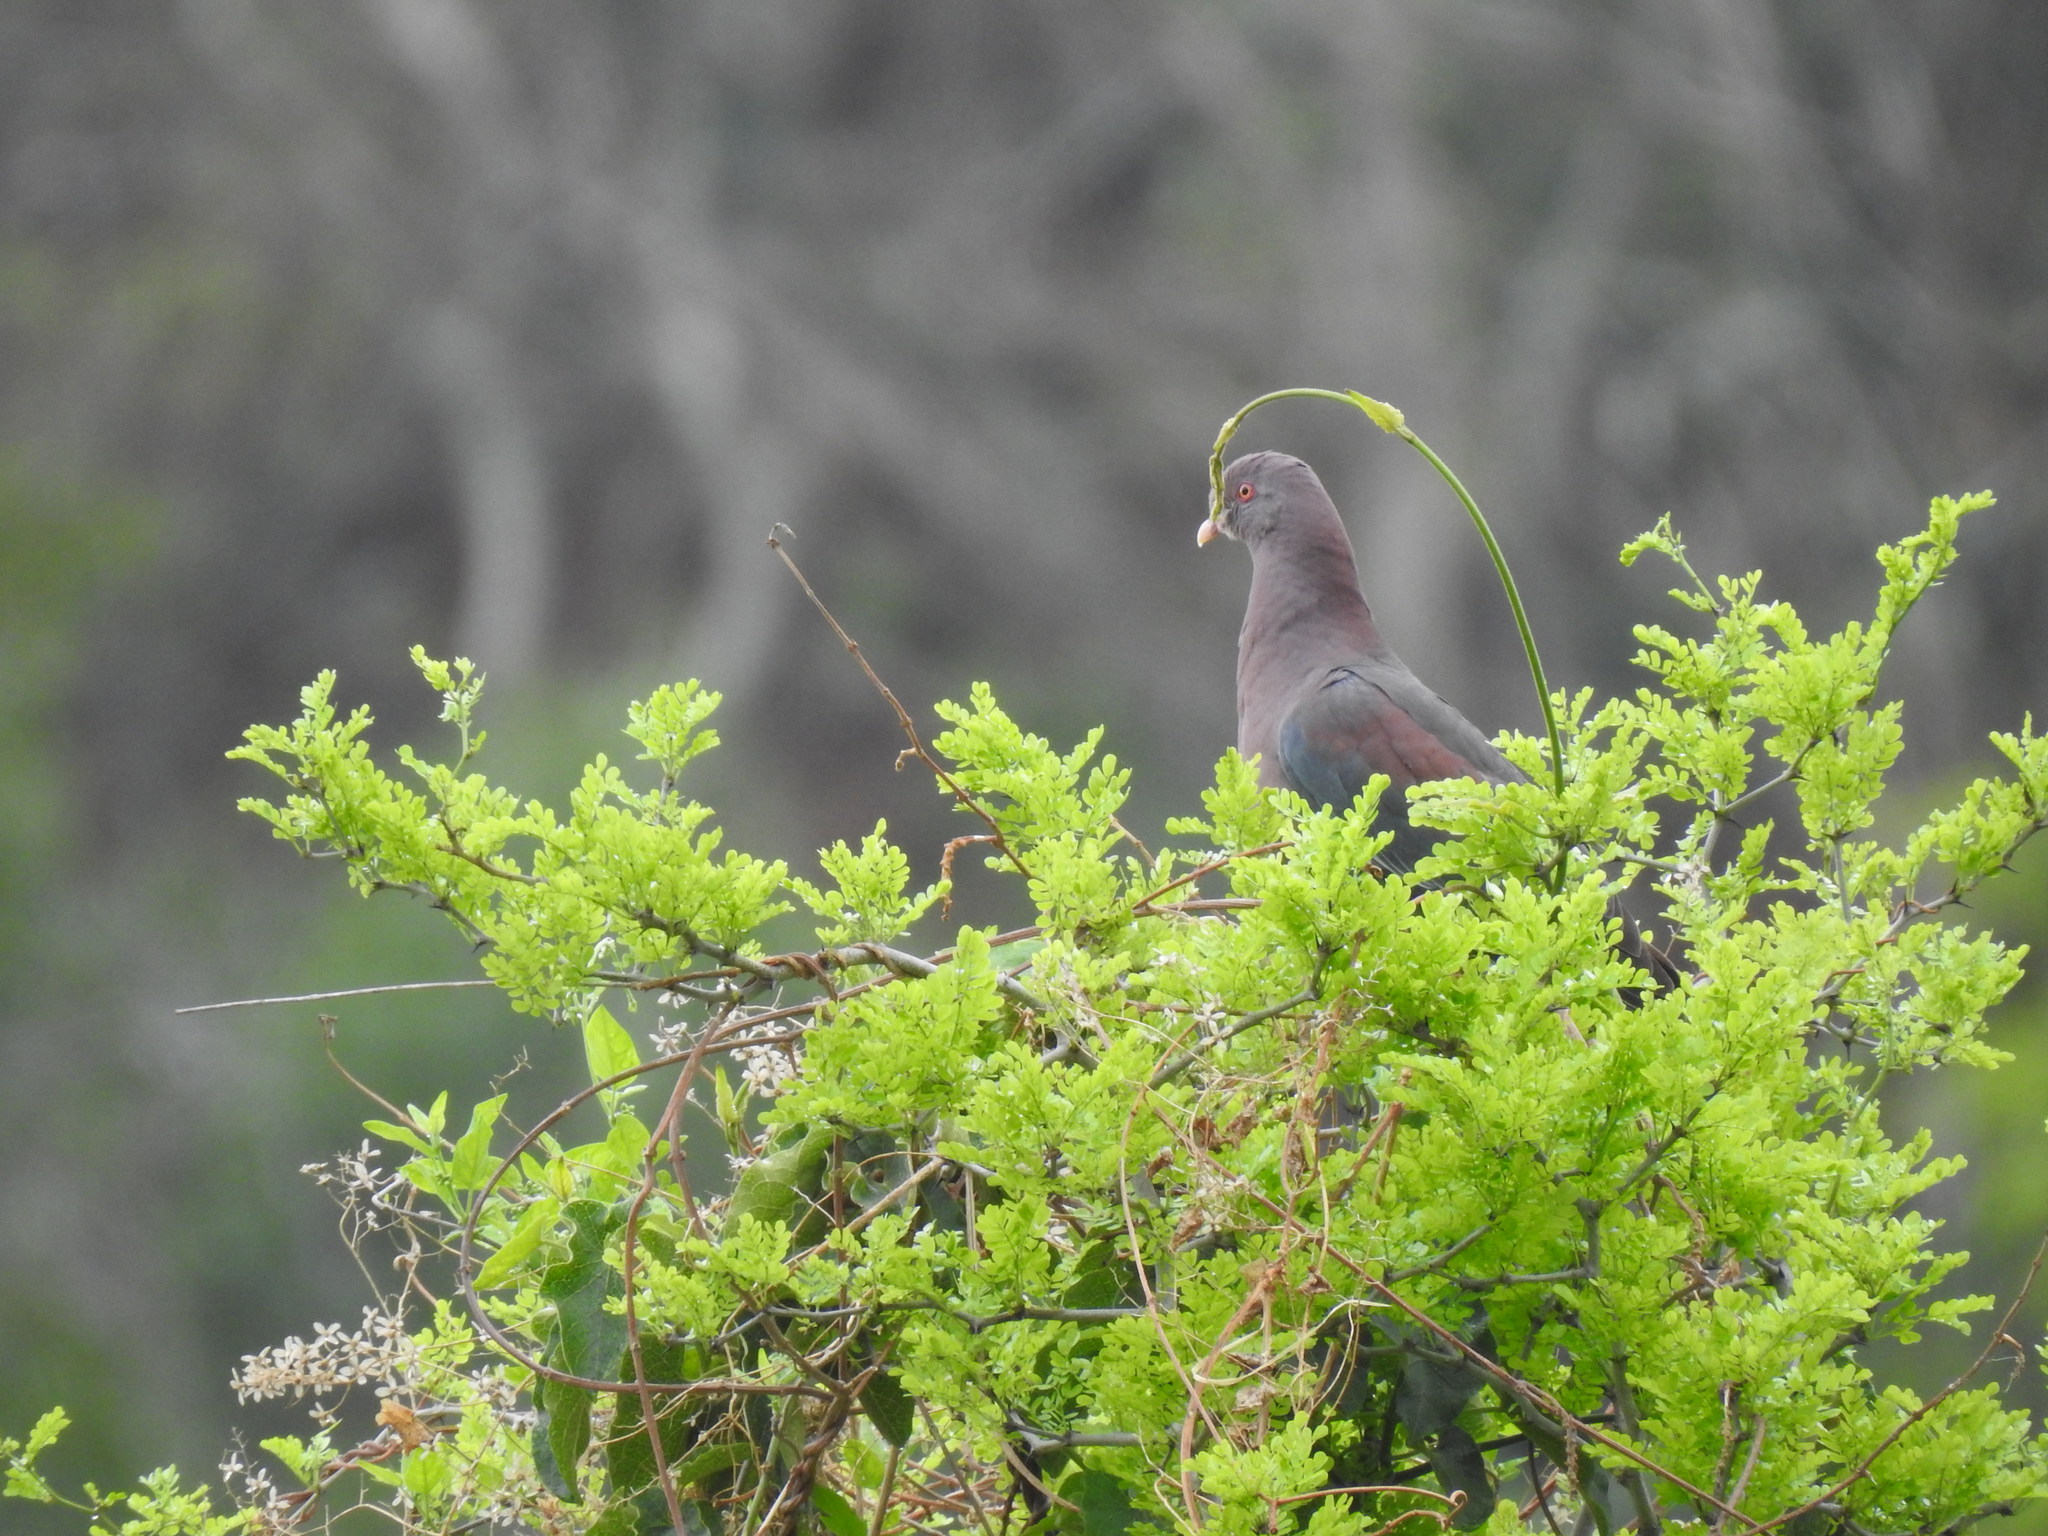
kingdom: Animalia
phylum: Chordata
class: Aves
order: Columbiformes
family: Columbidae
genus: Patagioenas
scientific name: Patagioenas flavirostris
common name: Red-billed pigeon
